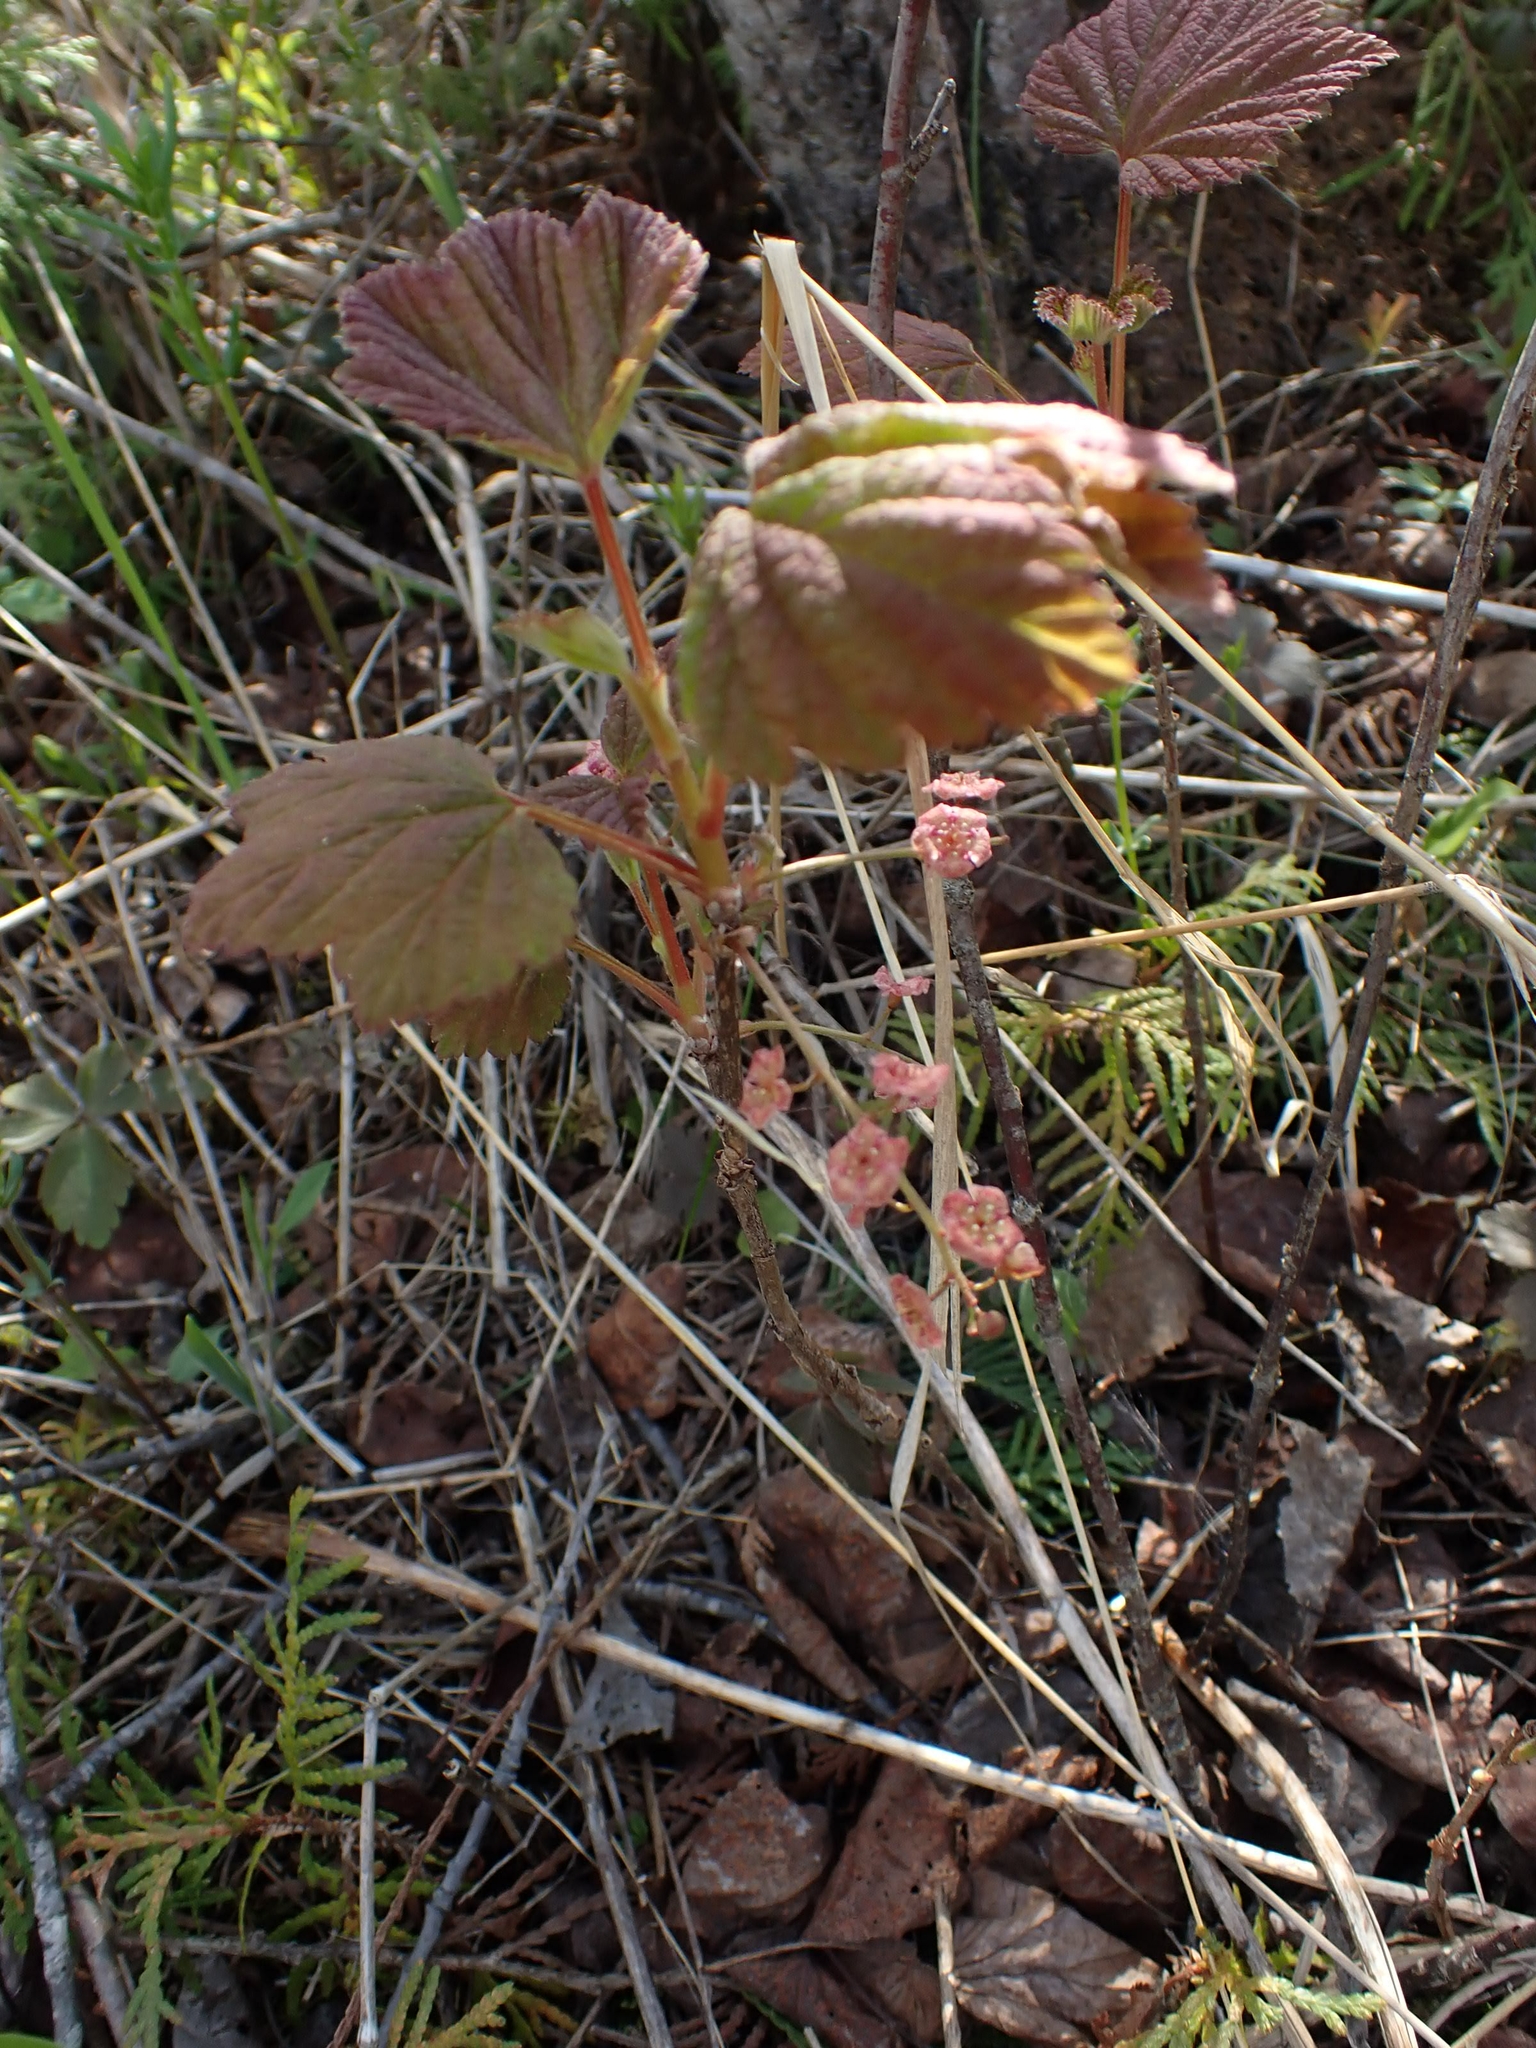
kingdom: Plantae
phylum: Tracheophyta
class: Magnoliopsida
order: Saxifragales
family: Grossulariaceae
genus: Ribes
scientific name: Ribes triste
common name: Swamp red currant
